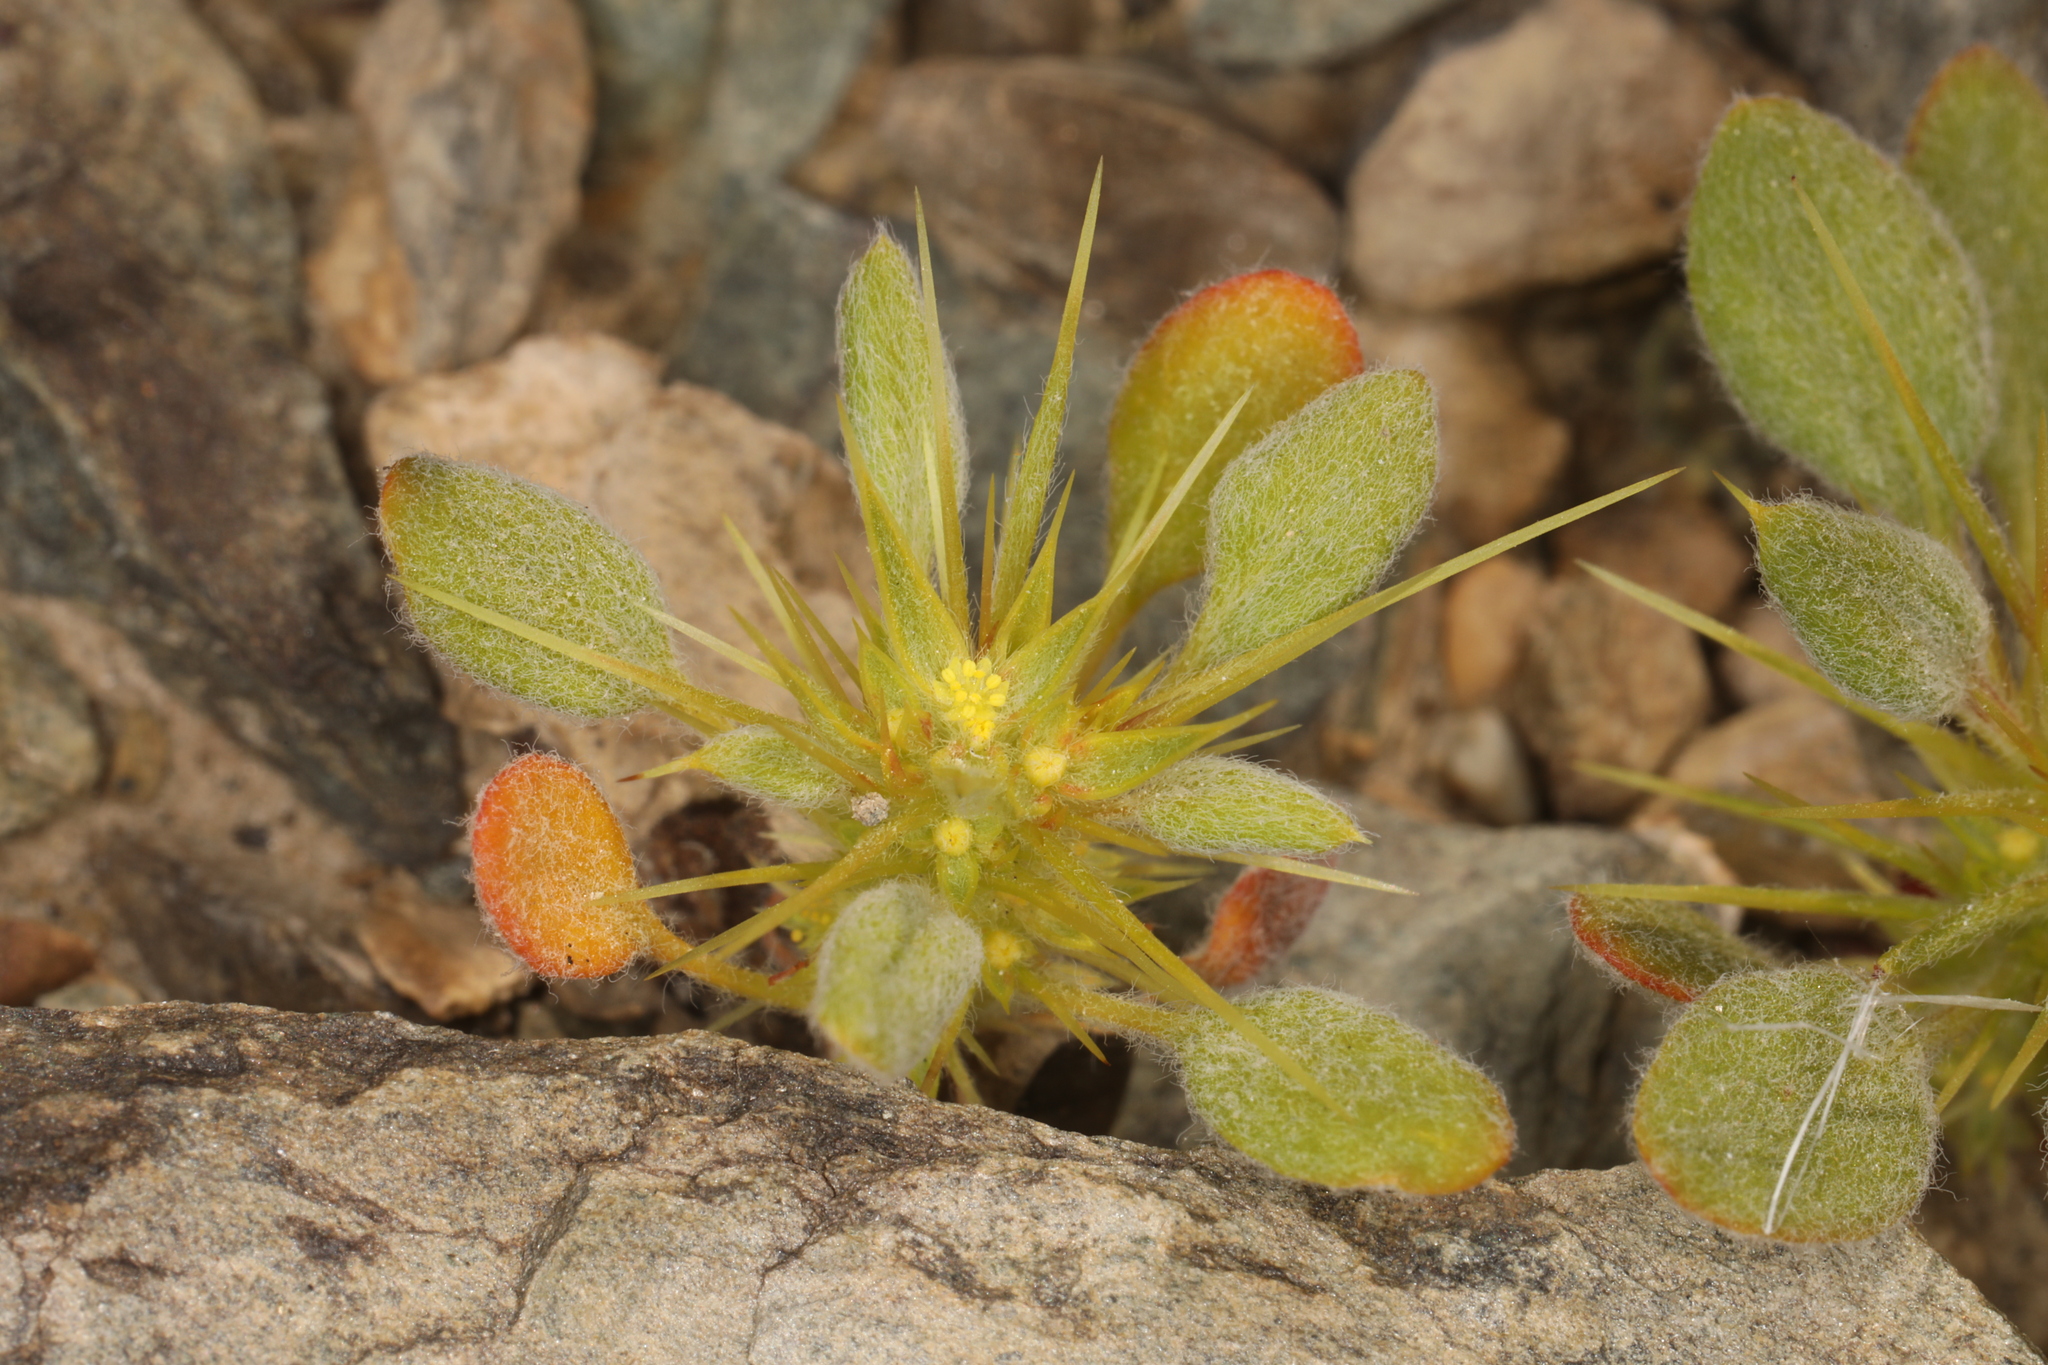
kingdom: Plantae
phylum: Tracheophyta
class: Magnoliopsida
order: Caryophyllales
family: Polygonaceae
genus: Chorizanthe
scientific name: Chorizanthe rigida
